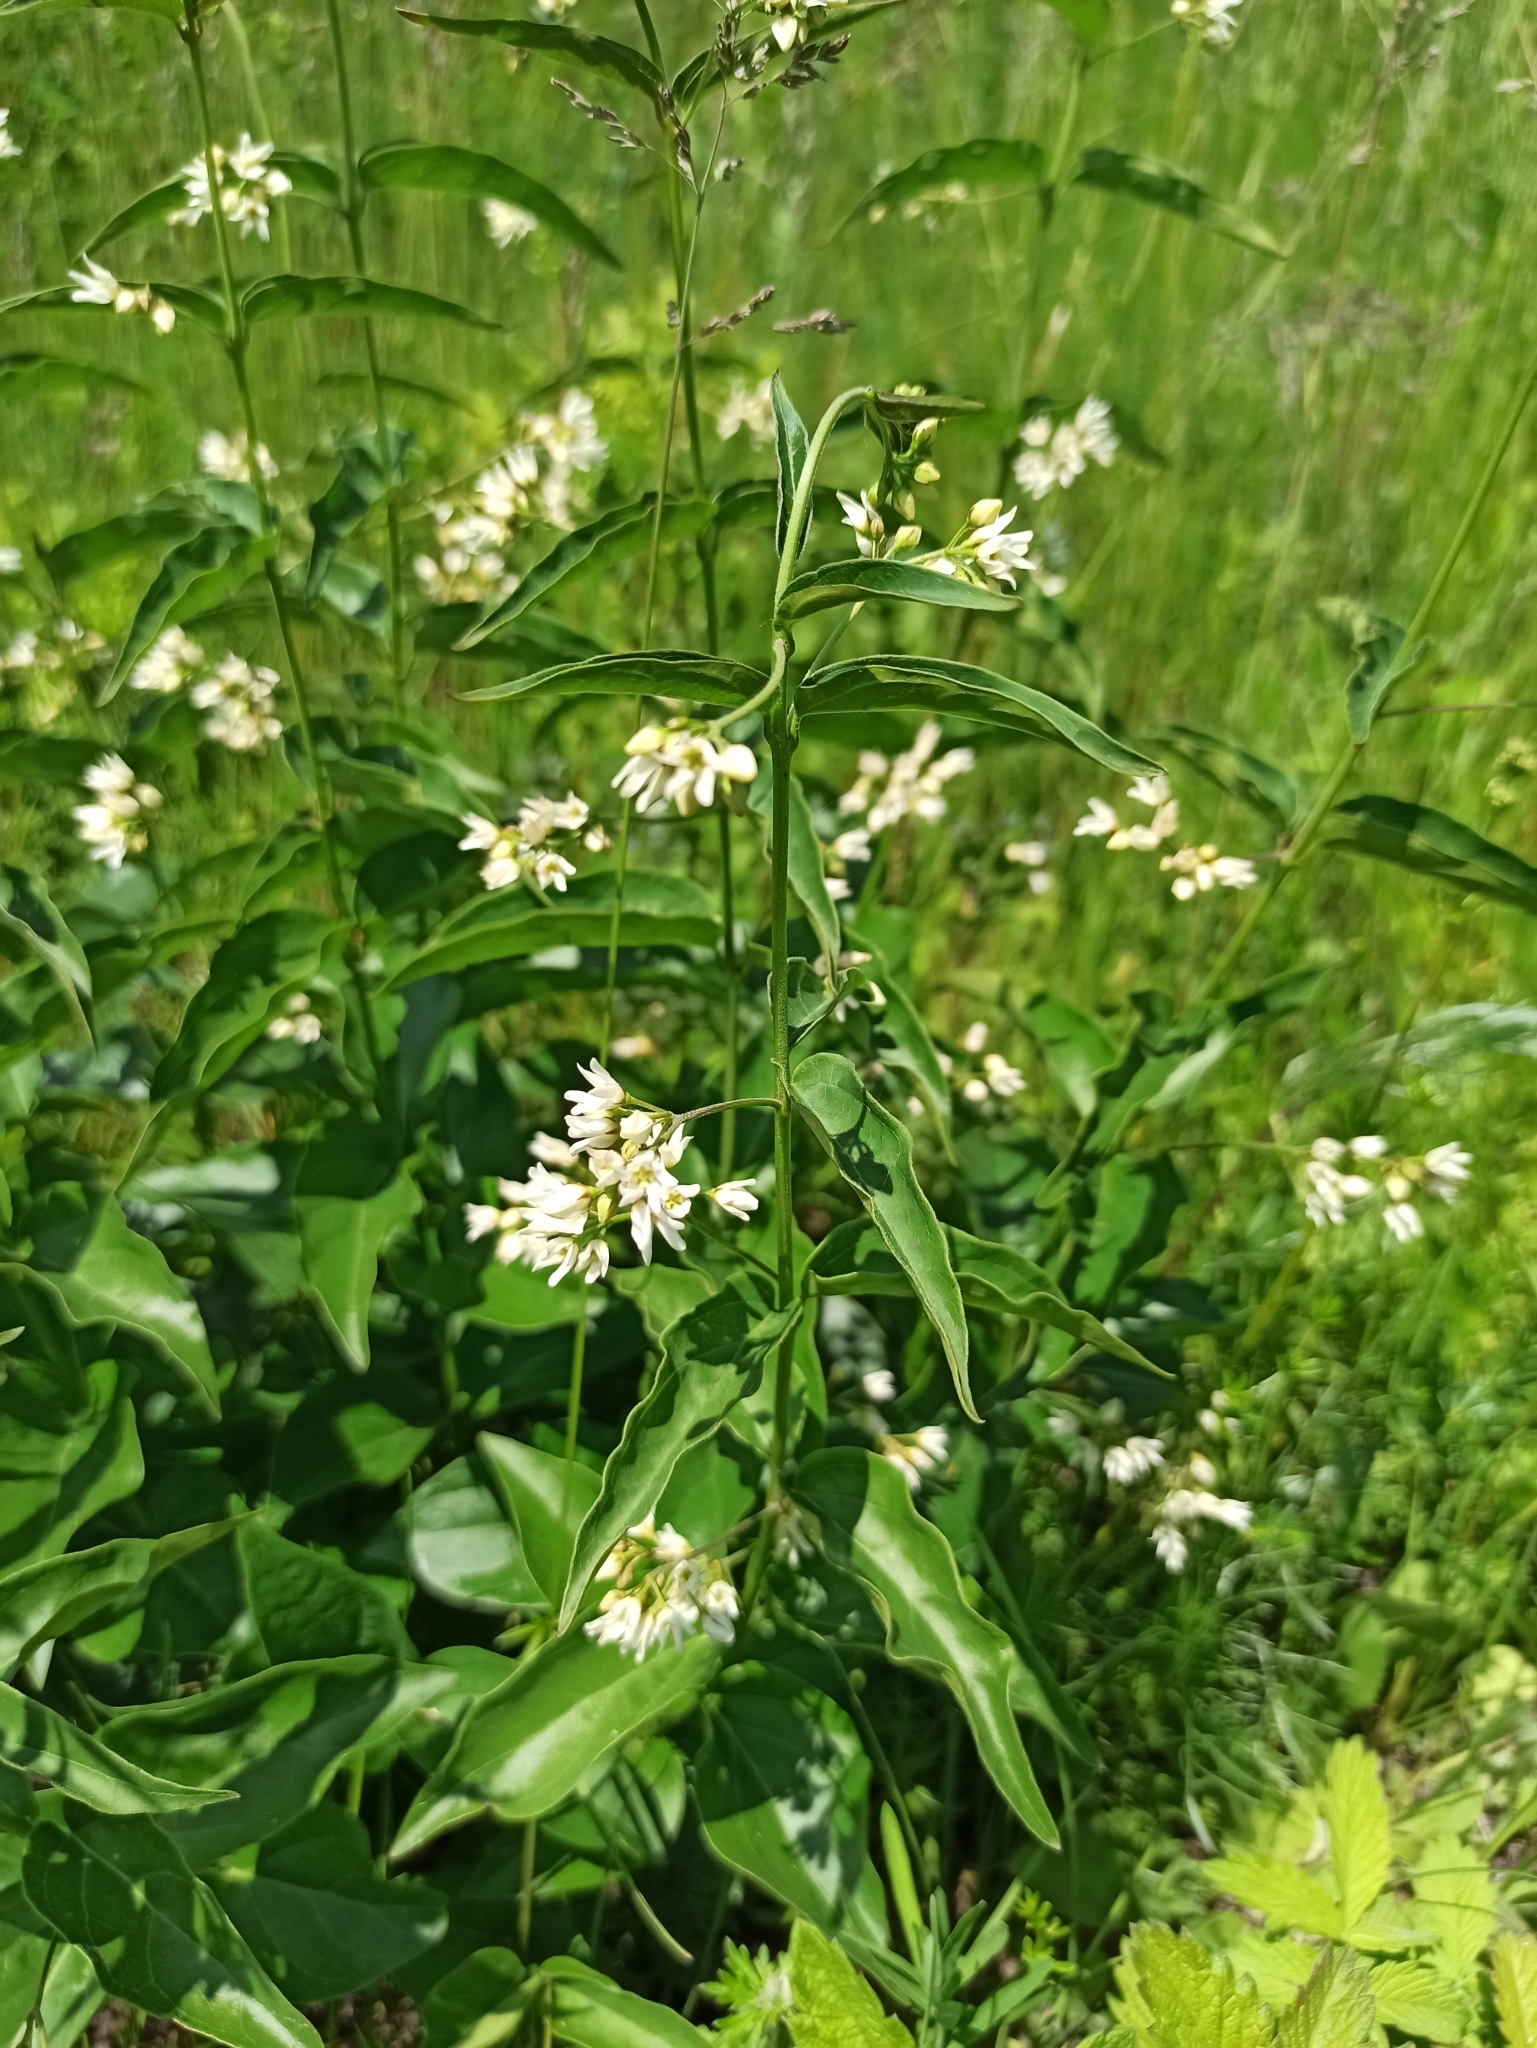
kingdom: Plantae
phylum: Tracheophyta
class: Magnoliopsida
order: Gentianales
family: Apocynaceae
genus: Vincetoxicum
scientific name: Vincetoxicum hirundinaria
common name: White swallowwort
